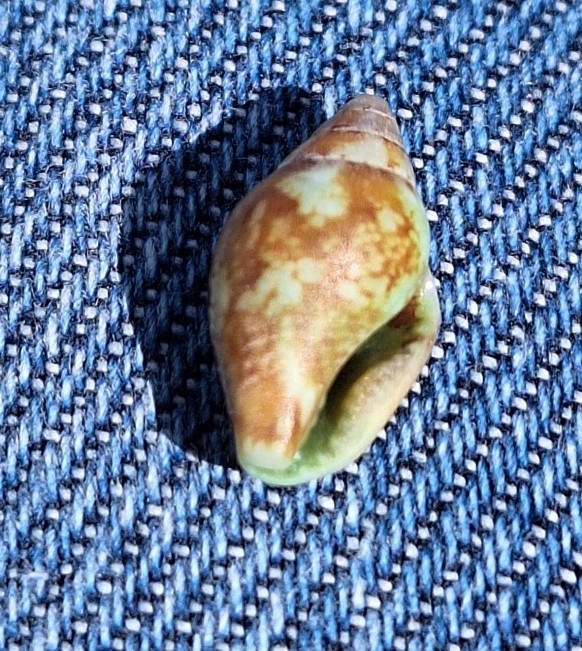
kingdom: Animalia
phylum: Mollusca
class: Gastropoda
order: Neogastropoda
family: Columbellidae
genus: Columbella
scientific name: Columbella rustica
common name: Rustic dove shell
